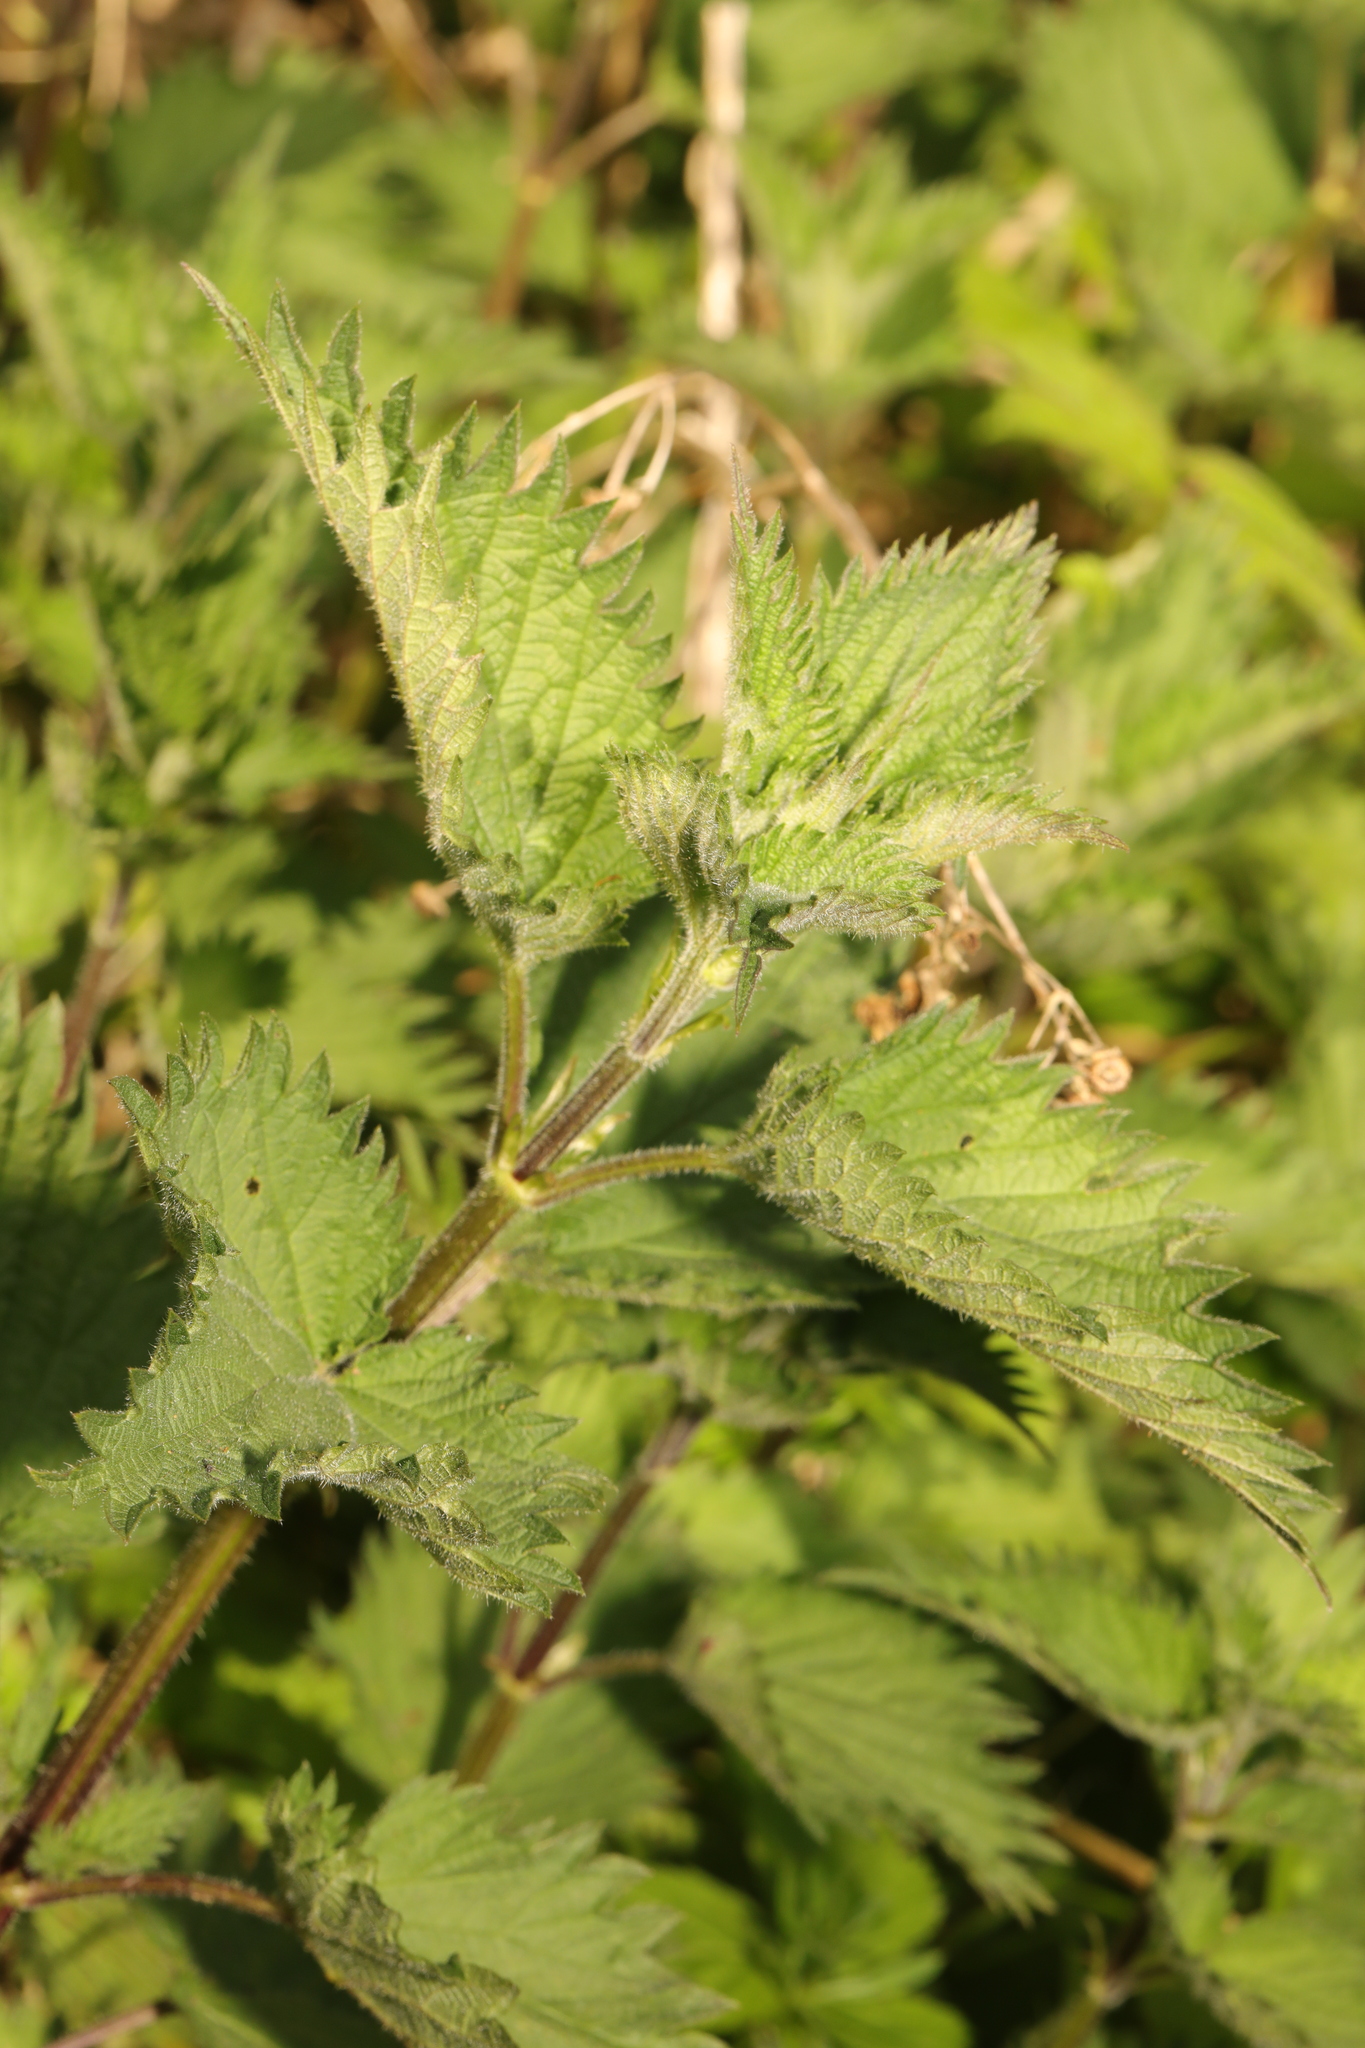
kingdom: Plantae
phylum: Tracheophyta
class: Magnoliopsida
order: Rosales
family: Urticaceae
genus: Urtica
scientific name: Urtica dioica
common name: Common nettle
